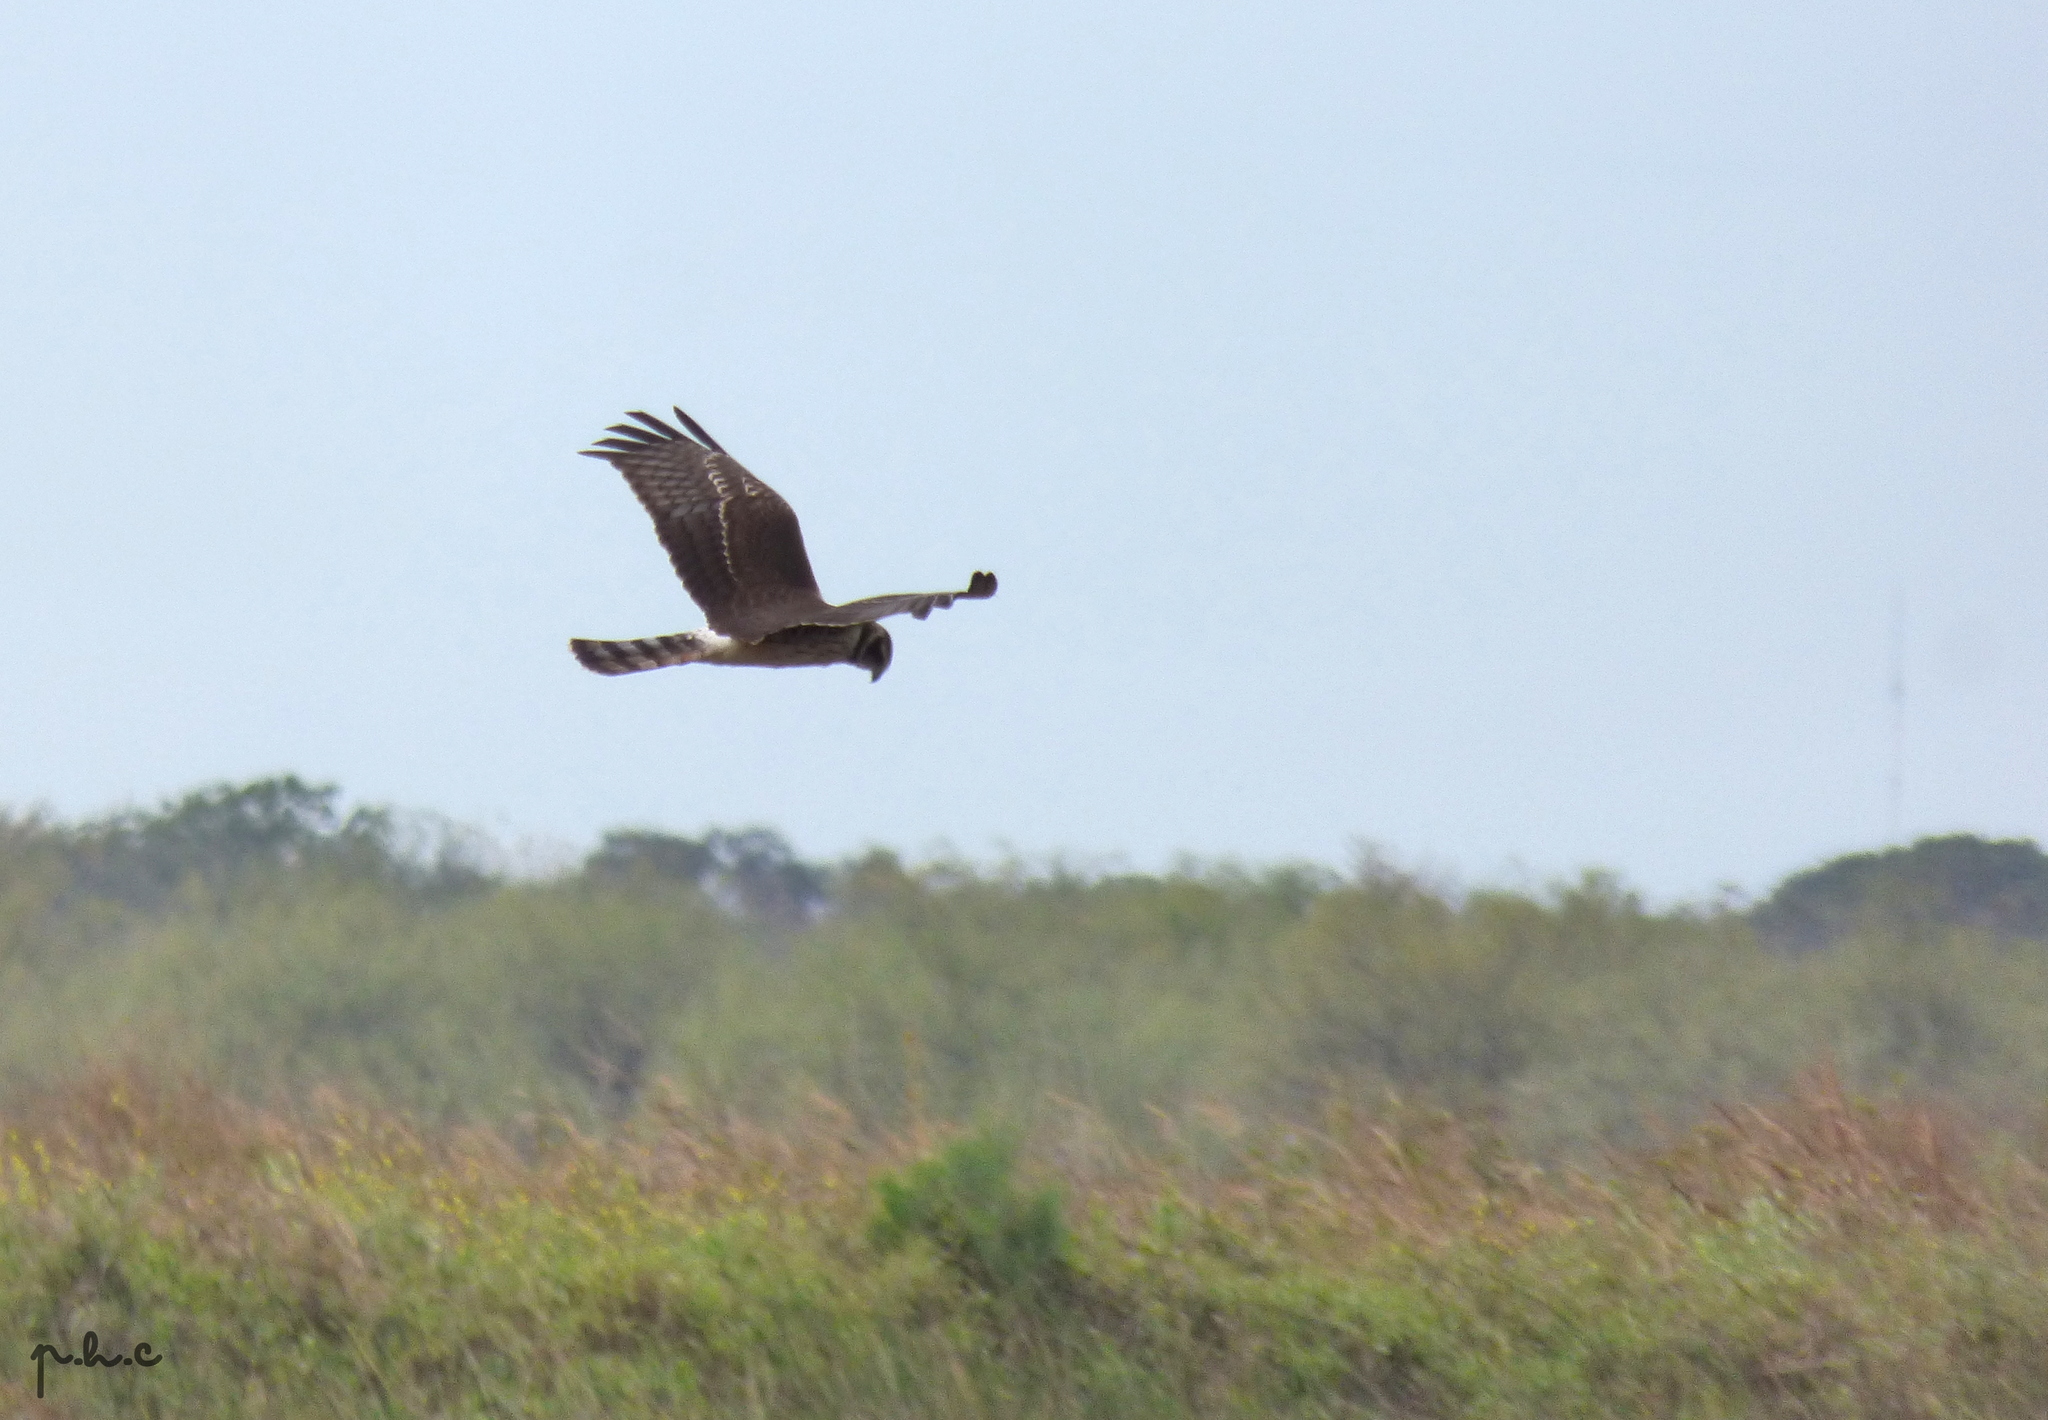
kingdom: Animalia
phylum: Chordata
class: Aves
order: Accipitriformes
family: Accipitridae
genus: Circus
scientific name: Circus buffoni
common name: Long-winged harrier
